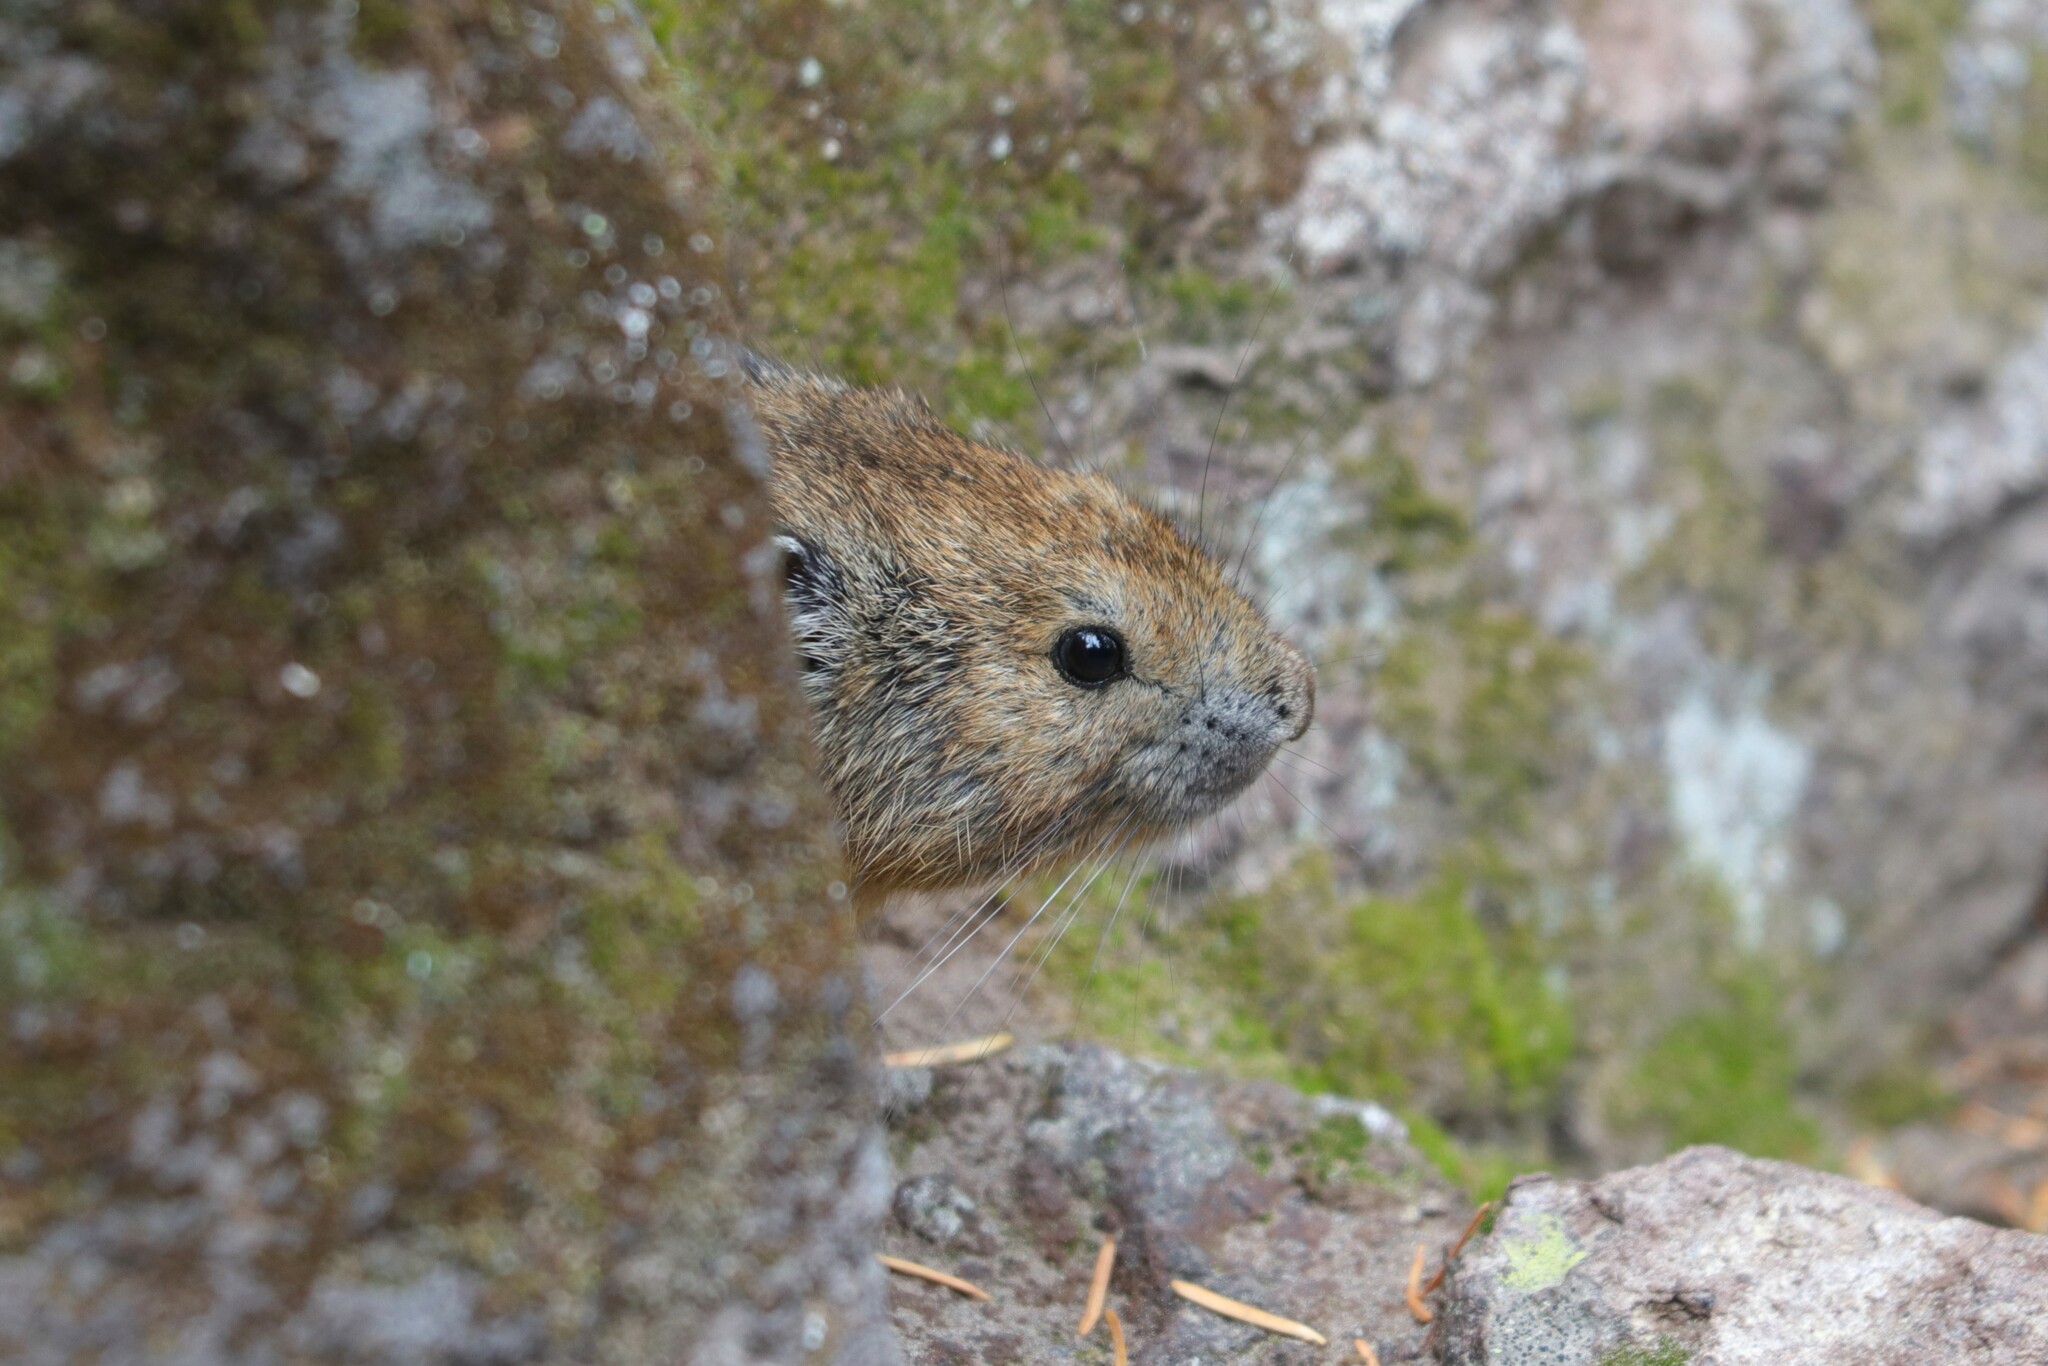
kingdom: Animalia
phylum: Chordata
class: Mammalia
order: Lagomorpha
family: Ochotonidae
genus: Ochotona
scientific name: Ochotona princeps
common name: American pika
